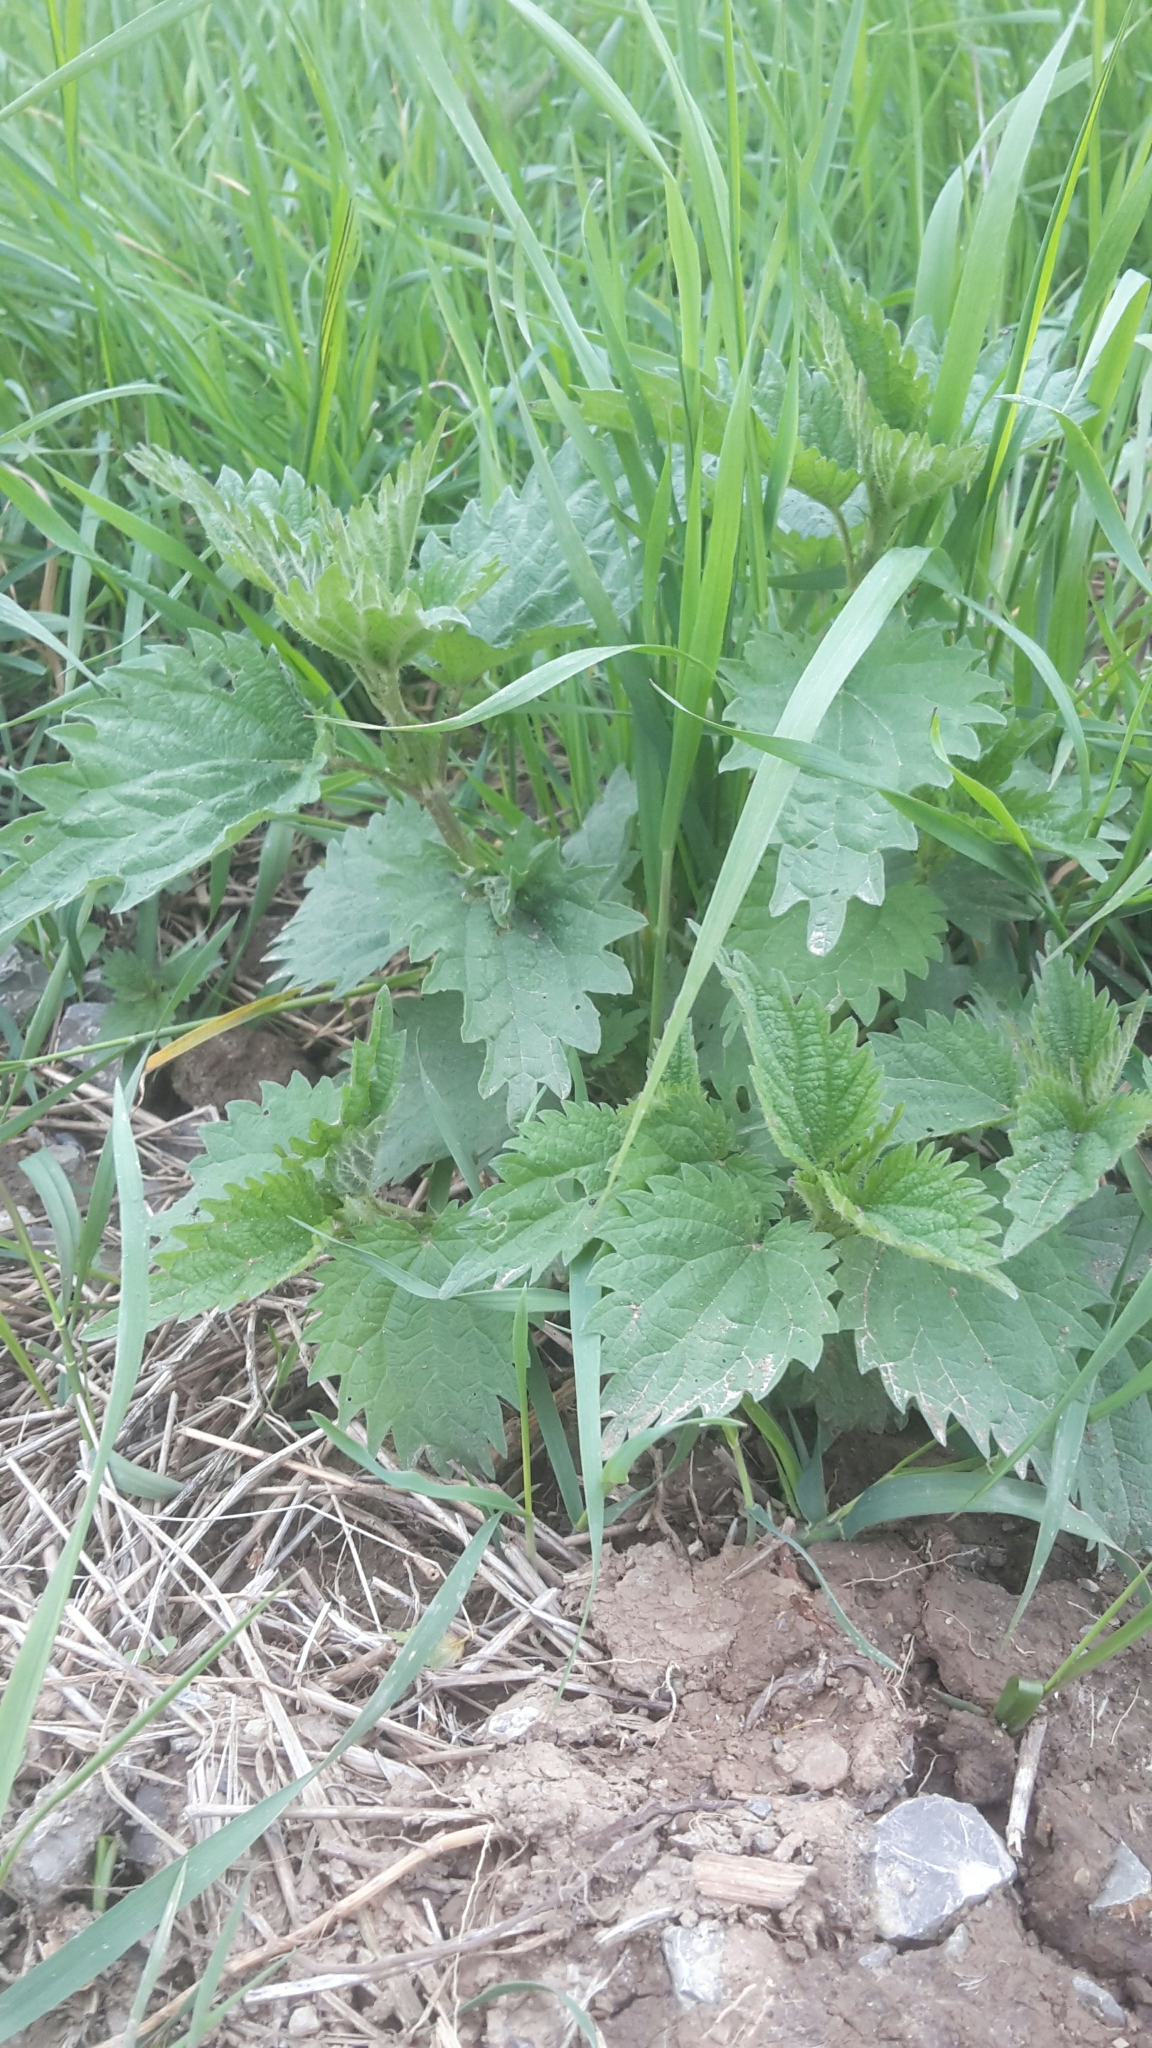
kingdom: Plantae
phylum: Tracheophyta
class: Magnoliopsida
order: Rosales
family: Urticaceae
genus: Urtica
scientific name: Urtica dioica
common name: Common nettle
